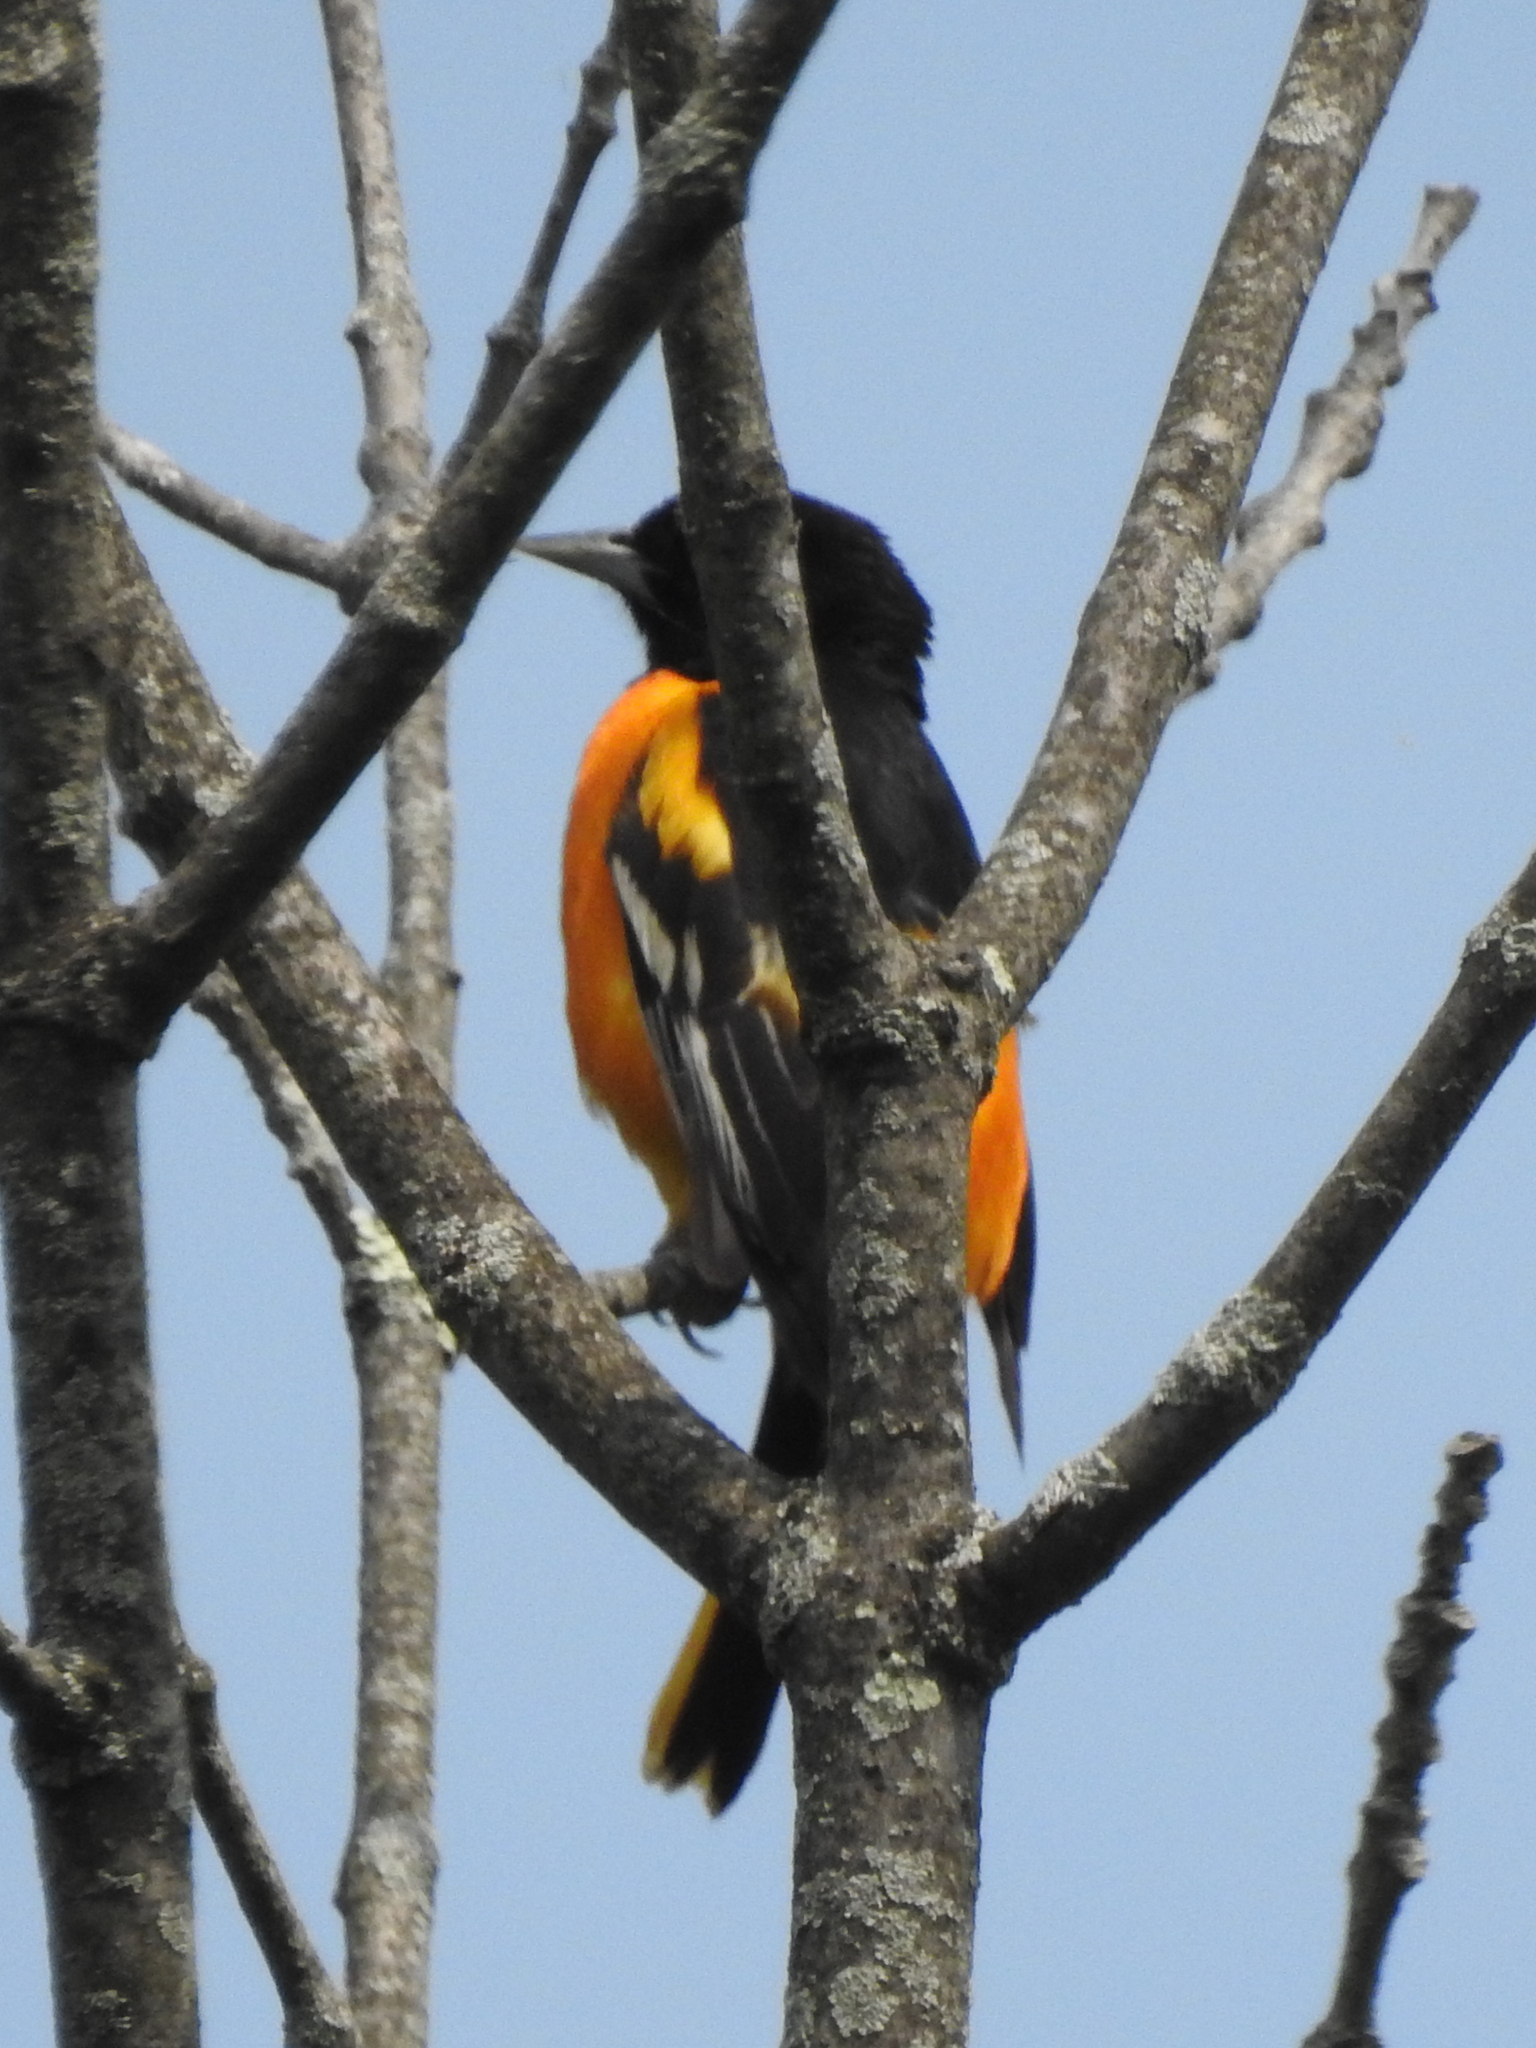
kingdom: Animalia
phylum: Chordata
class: Aves
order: Passeriformes
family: Icteridae
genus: Icterus
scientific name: Icterus galbula
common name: Baltimore oriole
